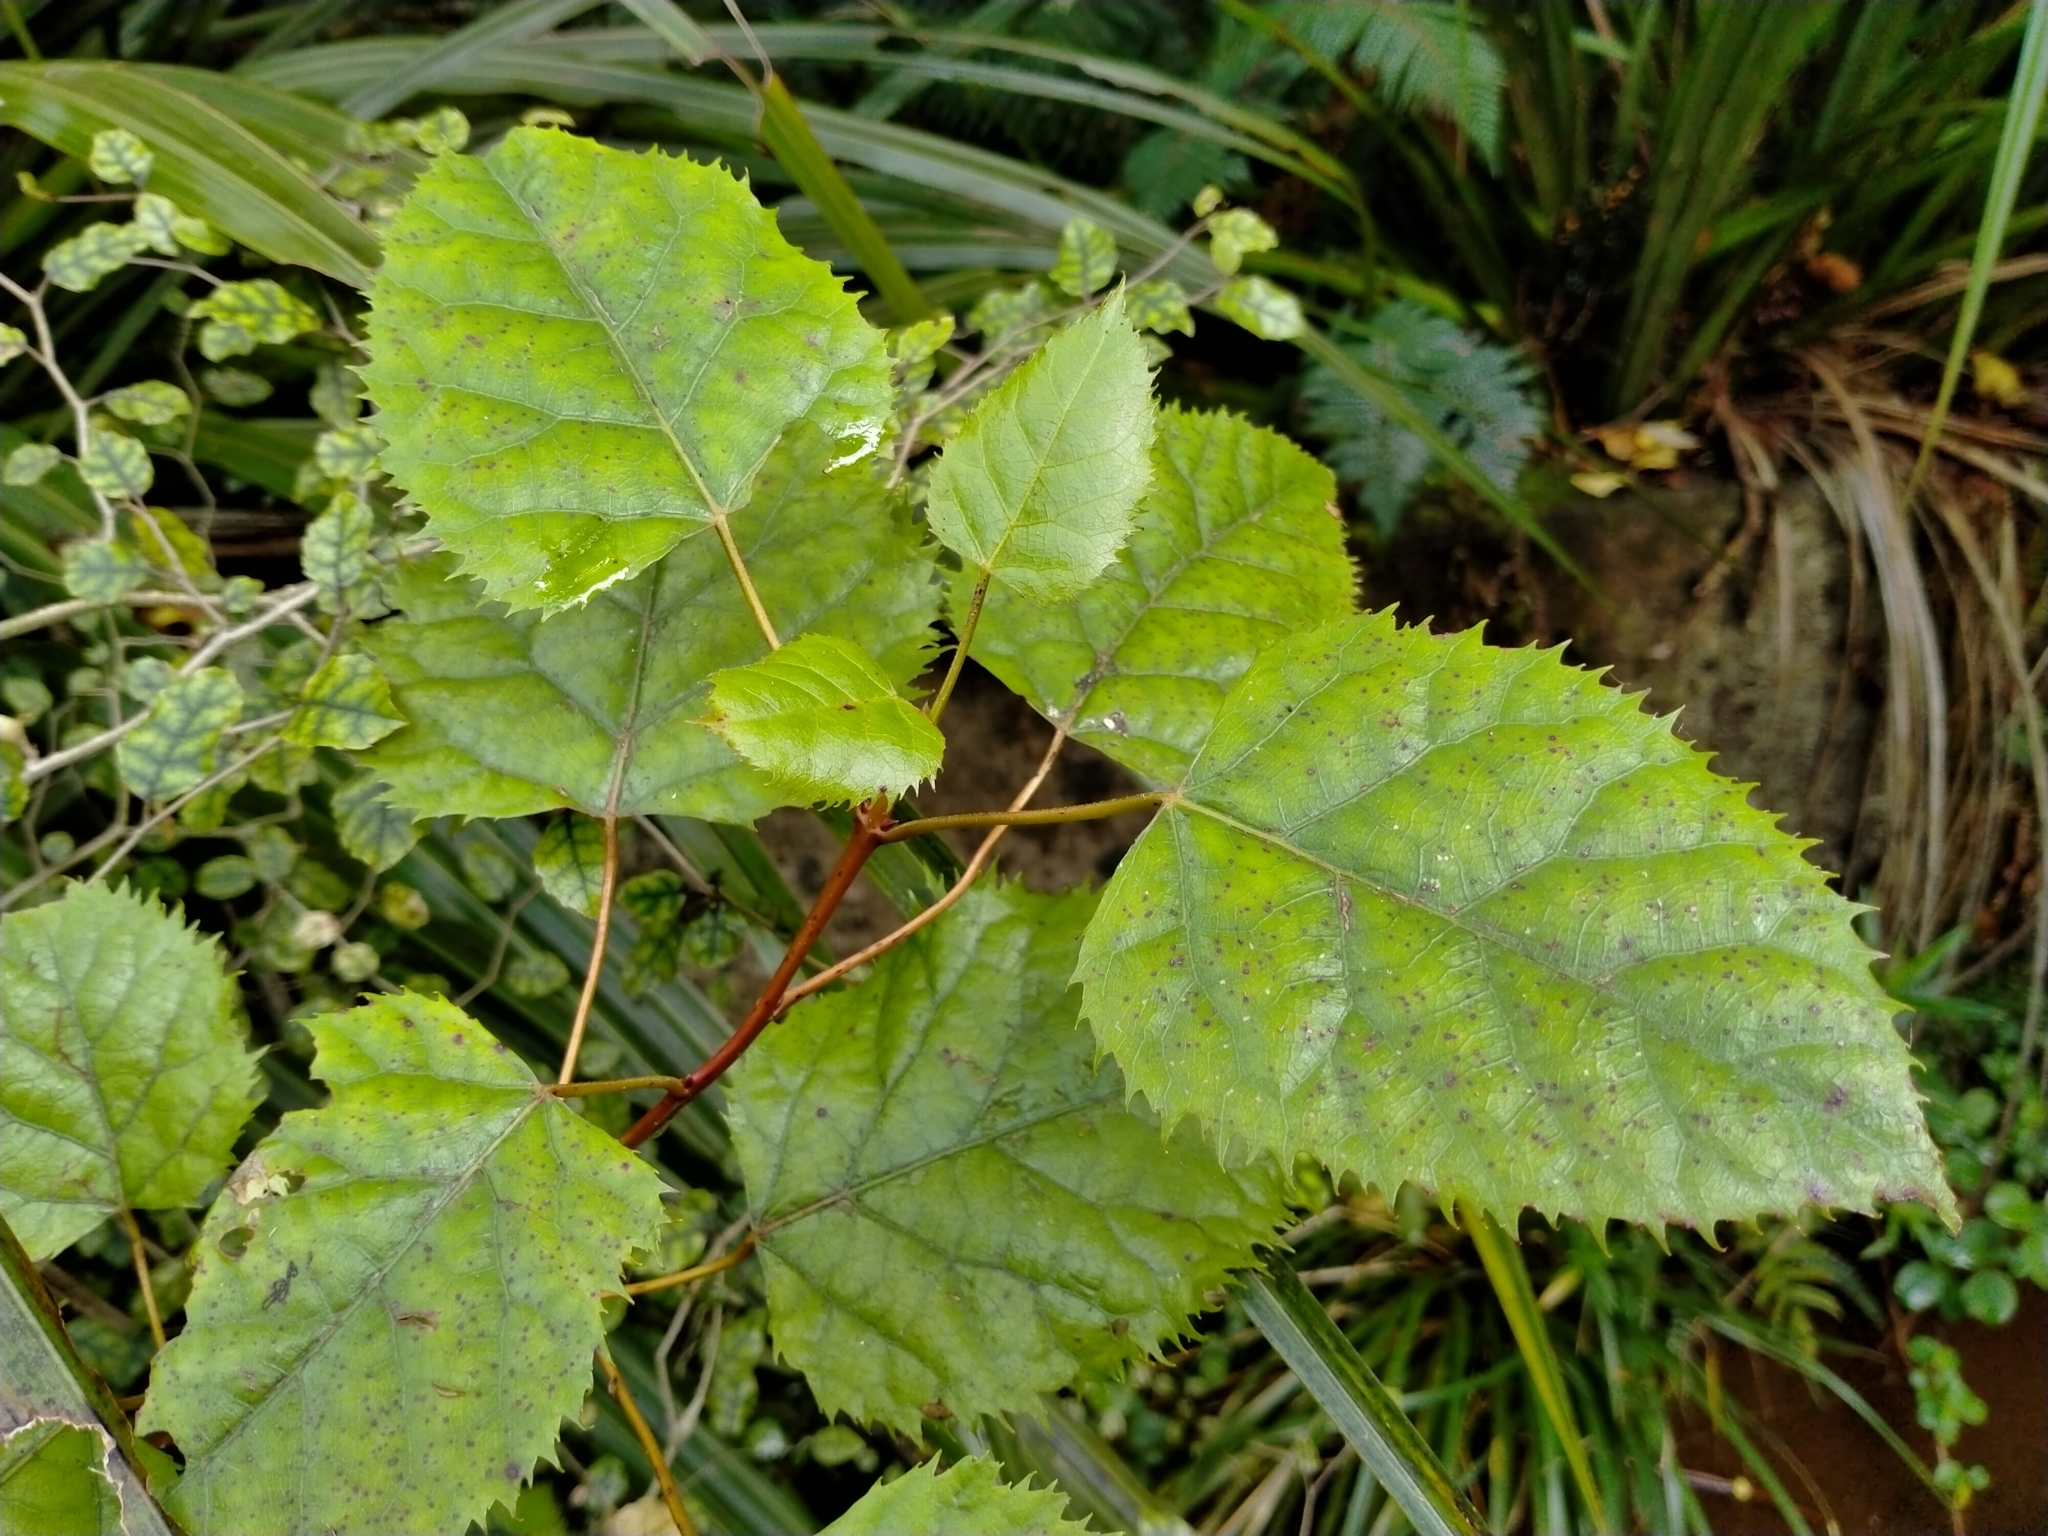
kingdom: Plantae
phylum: Tracheophyta
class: Magnoliopsida
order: Oxalidales
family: Elaeocarpaceae
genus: Aristotelia
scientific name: Aristotelia serrata
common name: New zealand wineberry
